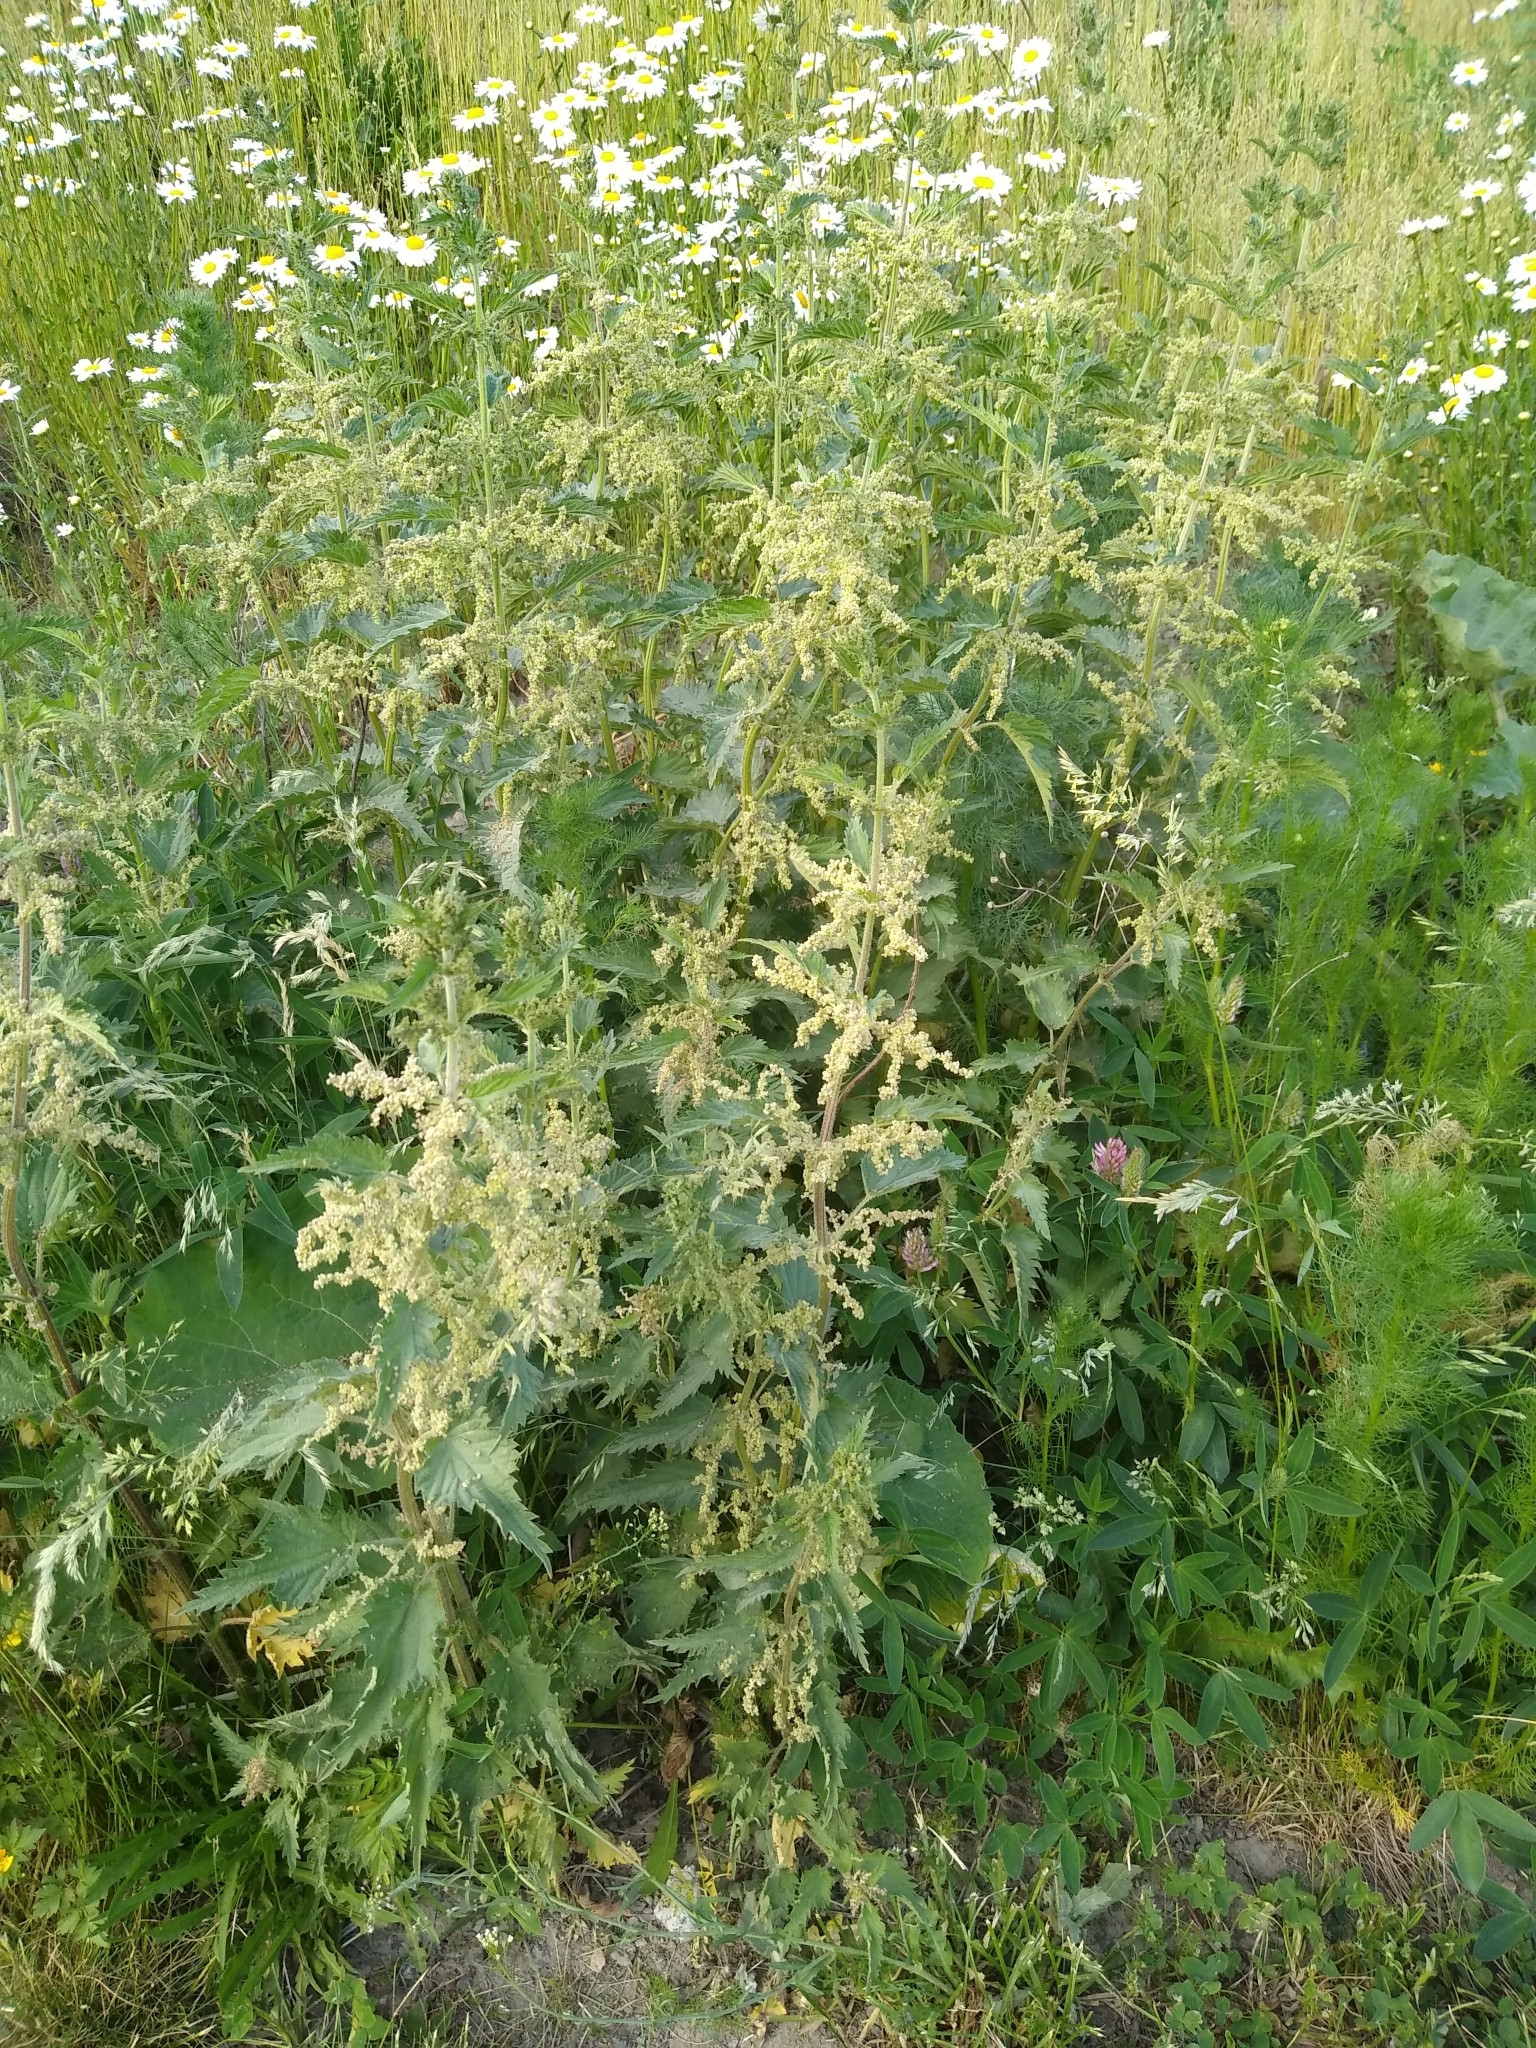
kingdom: Plantae
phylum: Tracheophyta
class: Magnoliopsida
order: Rosales
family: Urticaceae
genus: Urtica
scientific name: Urtica dioica
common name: Common nettle
